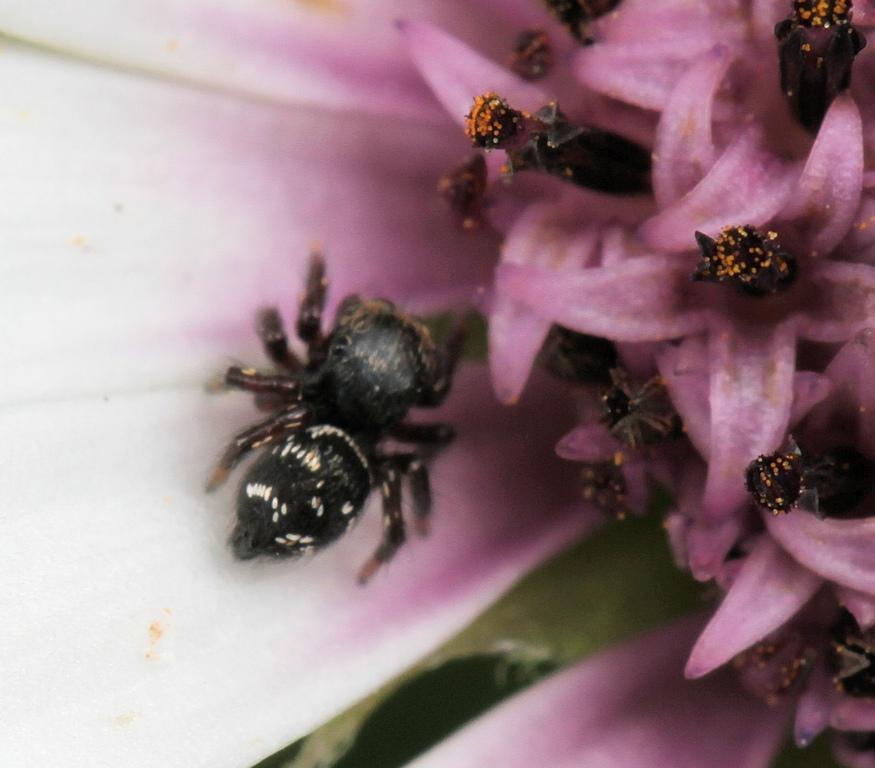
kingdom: Animalia
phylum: Arthropoda
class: Arachnida
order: Araneae
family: Salticidae
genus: Baryphas
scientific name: Baryphas ahenus
